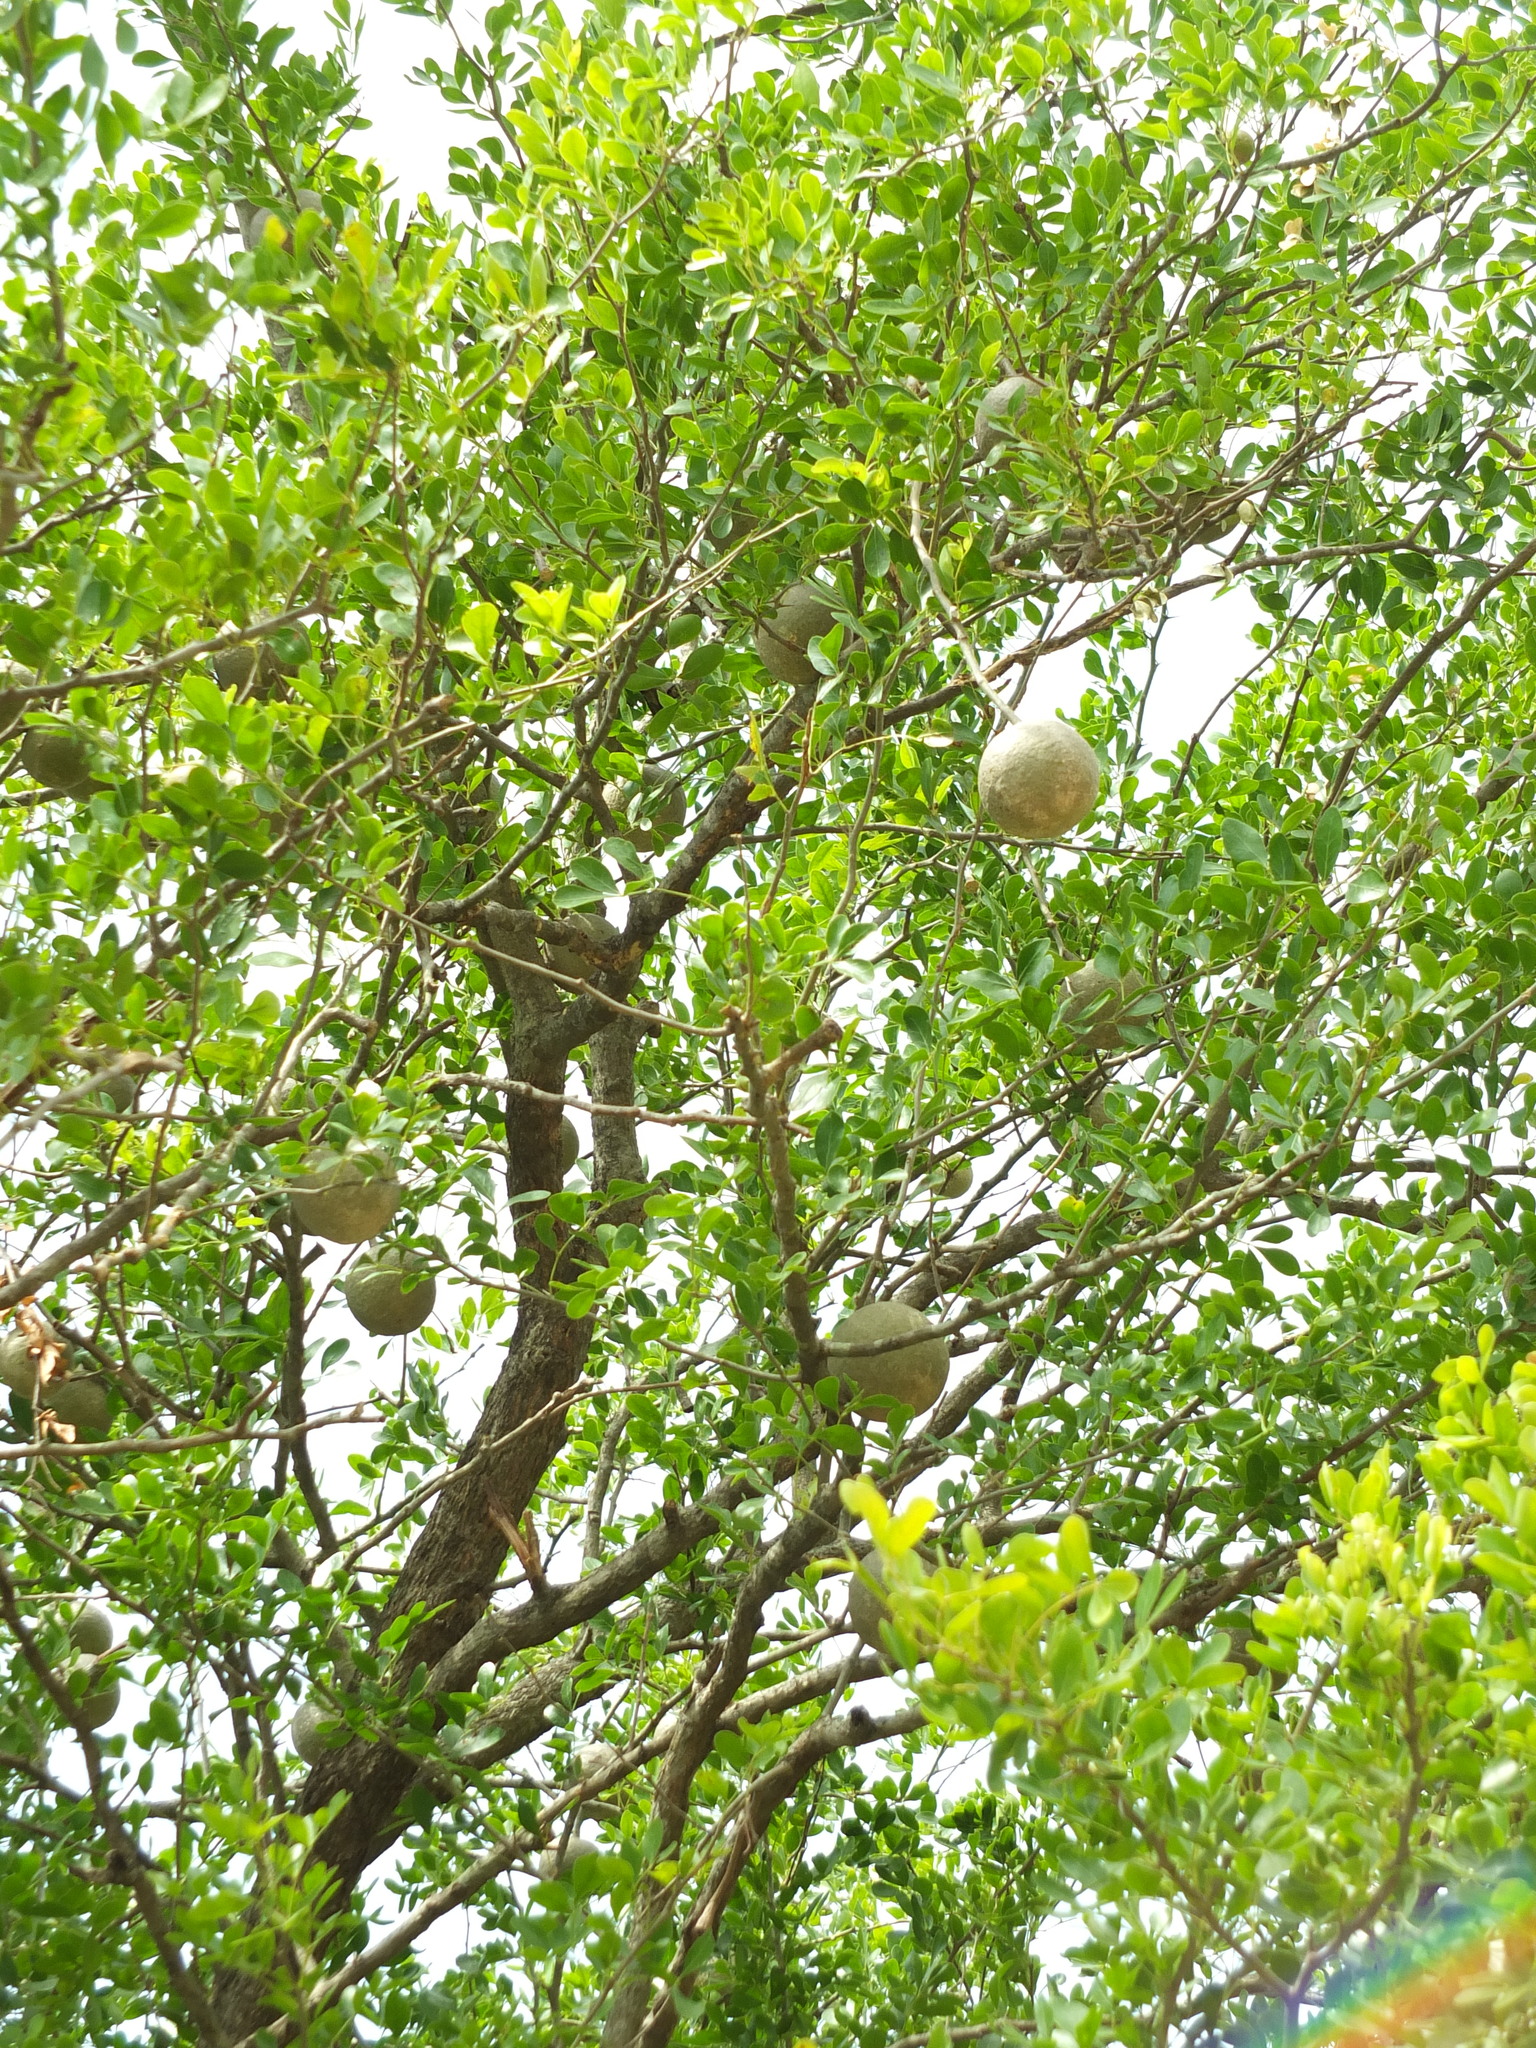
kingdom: Plantae
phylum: Tracheophyta
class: Magnoliopsida
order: Sapindales
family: Rutaceae
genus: Limonia
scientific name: Limonia acidissima
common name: Elephant apple
